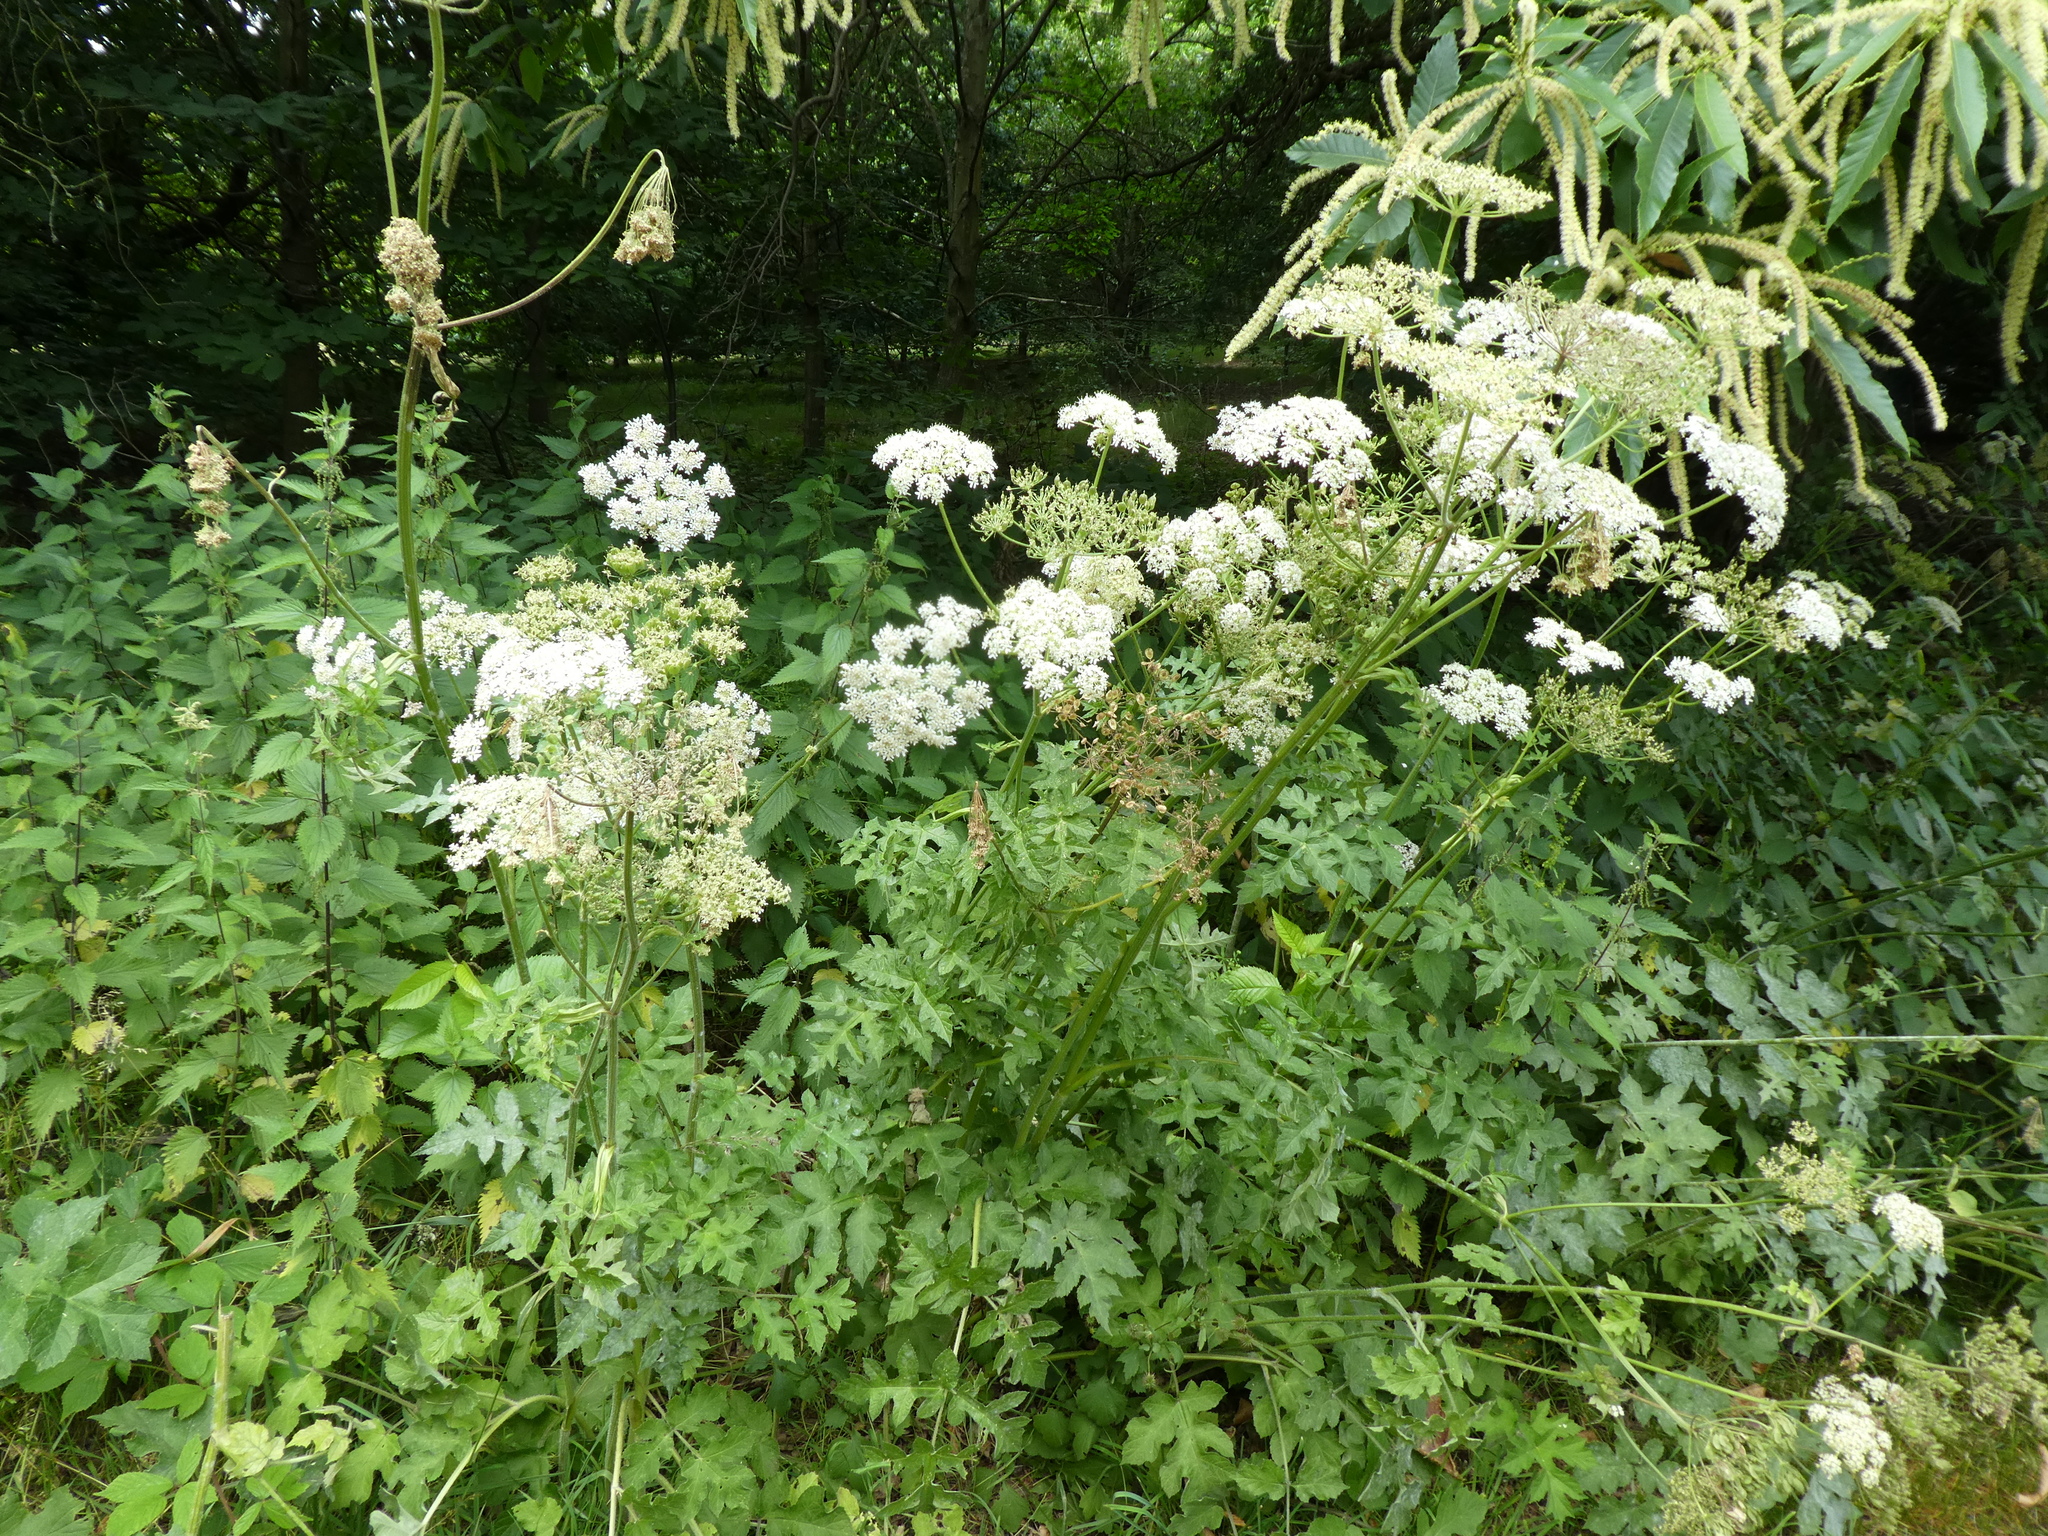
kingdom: Plantae
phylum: Tracheophyta
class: Magnoliopsida
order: Apiales
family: Apiaceae
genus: Heracleum
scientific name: Heracleum sphondylium
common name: Hogweed
